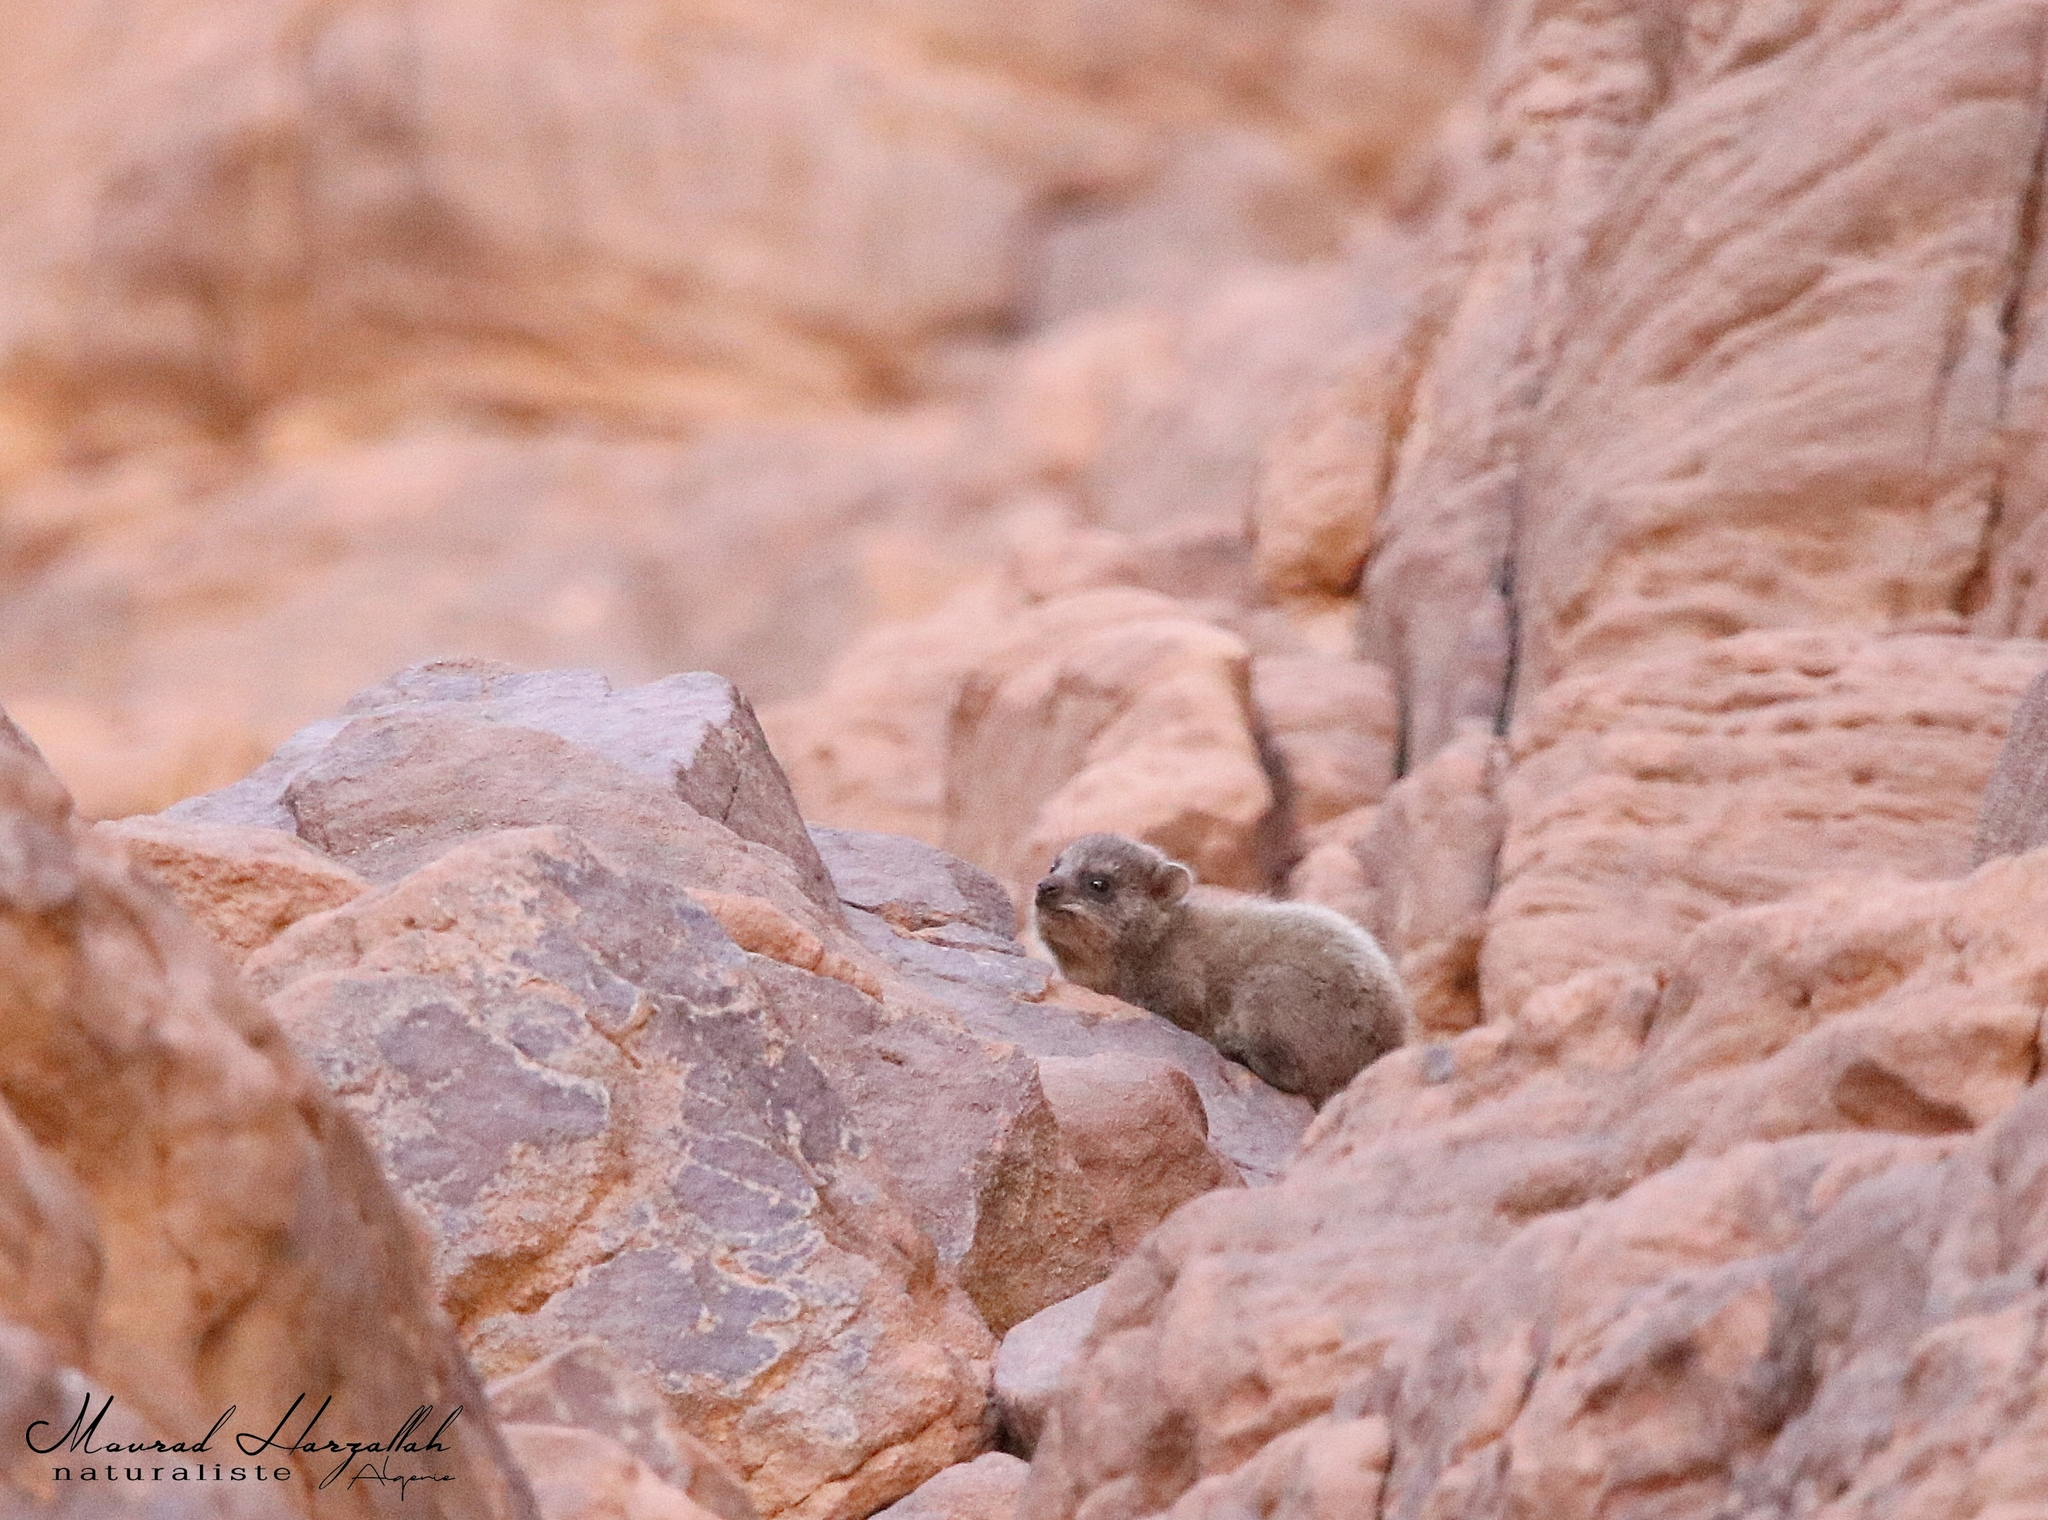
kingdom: Animalia
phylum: Chordata
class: Mammalia
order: Hyracoidea
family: Procaviidae
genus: Procavia
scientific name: Procavia capensis
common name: Rock hyrax
